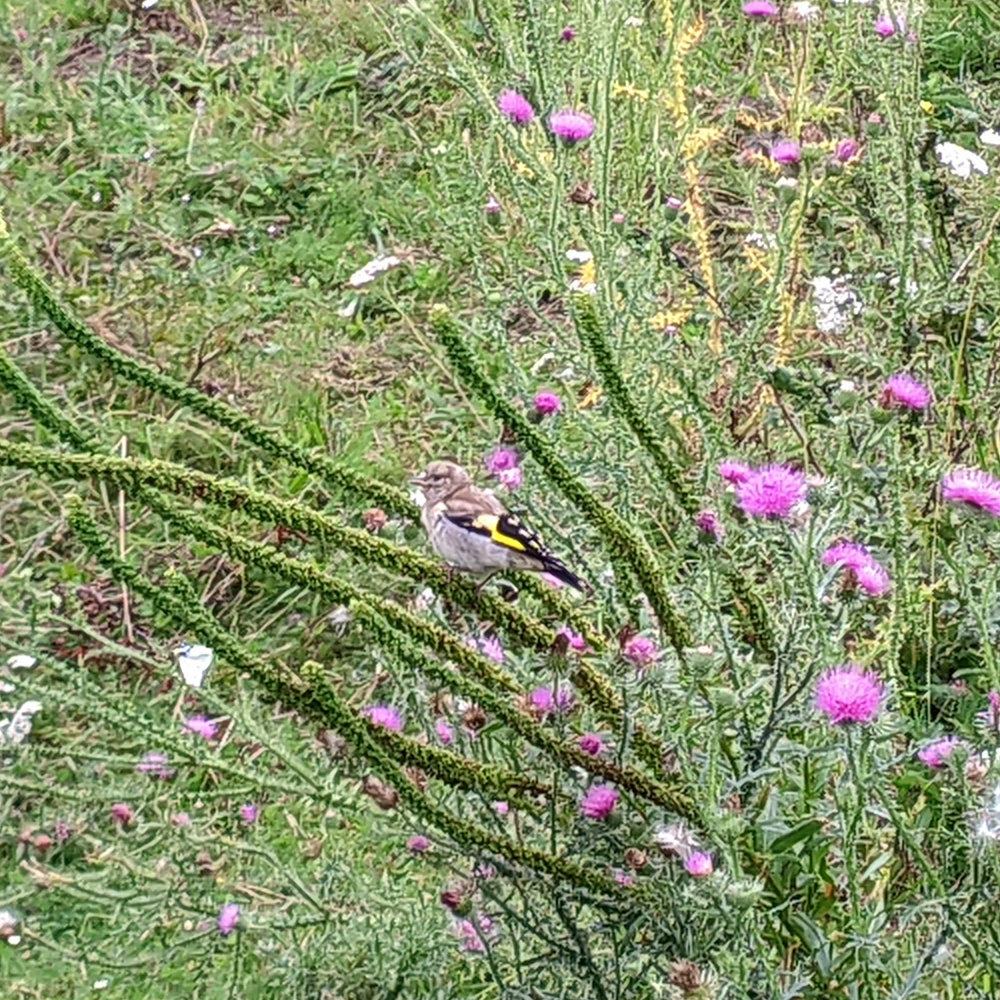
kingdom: Animalia
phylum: Chordata
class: Aves
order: Passeriformes
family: Fringillidae
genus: Carduelis
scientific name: Carduelis carduelis
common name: European goldfinch
